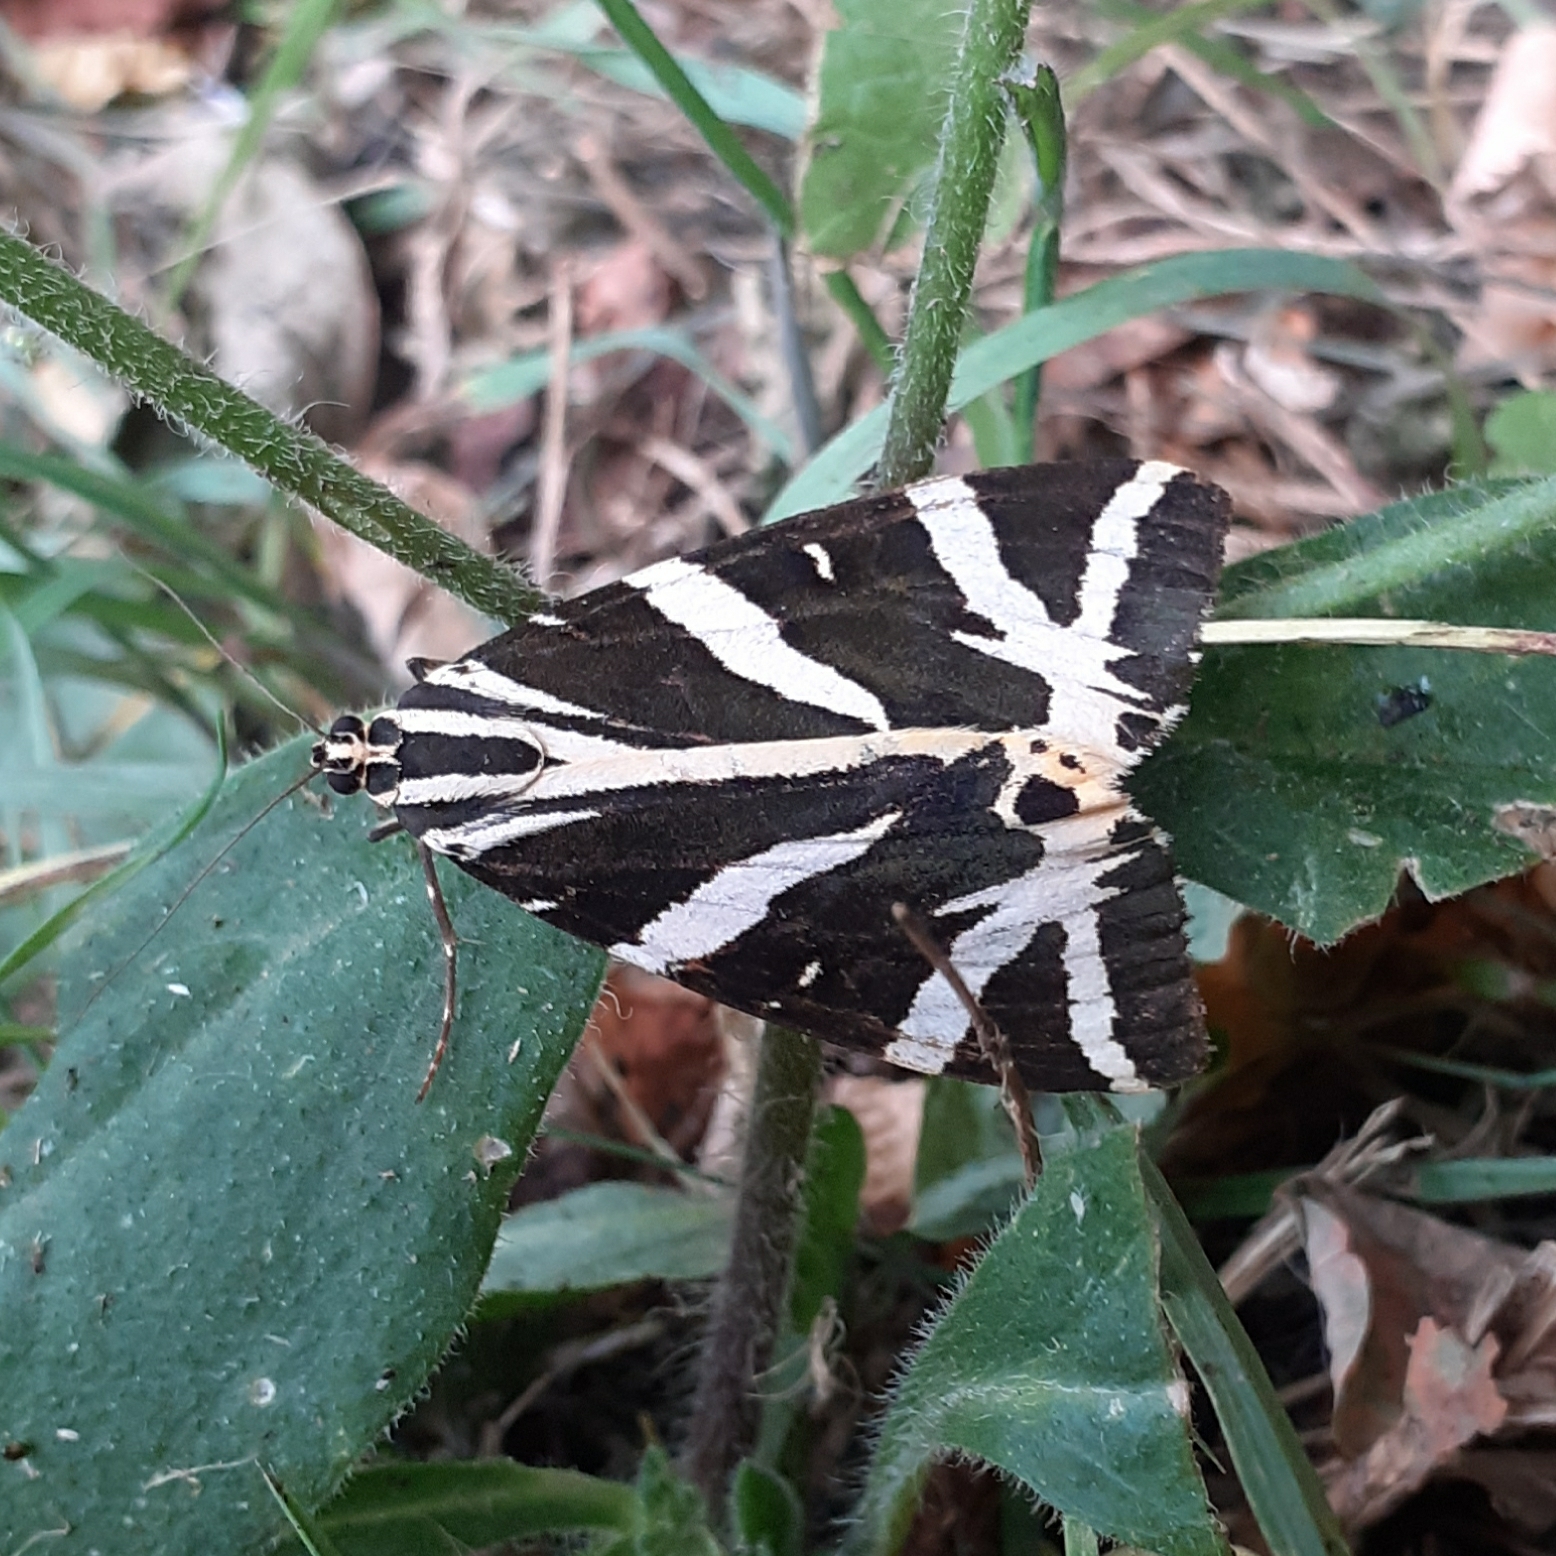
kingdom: Animalia
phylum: Arthropoda
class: Insecta
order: Lepidoptera
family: Erebidae
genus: Euplagia
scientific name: Euplagia quadripunctaria
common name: Jersey tiger
